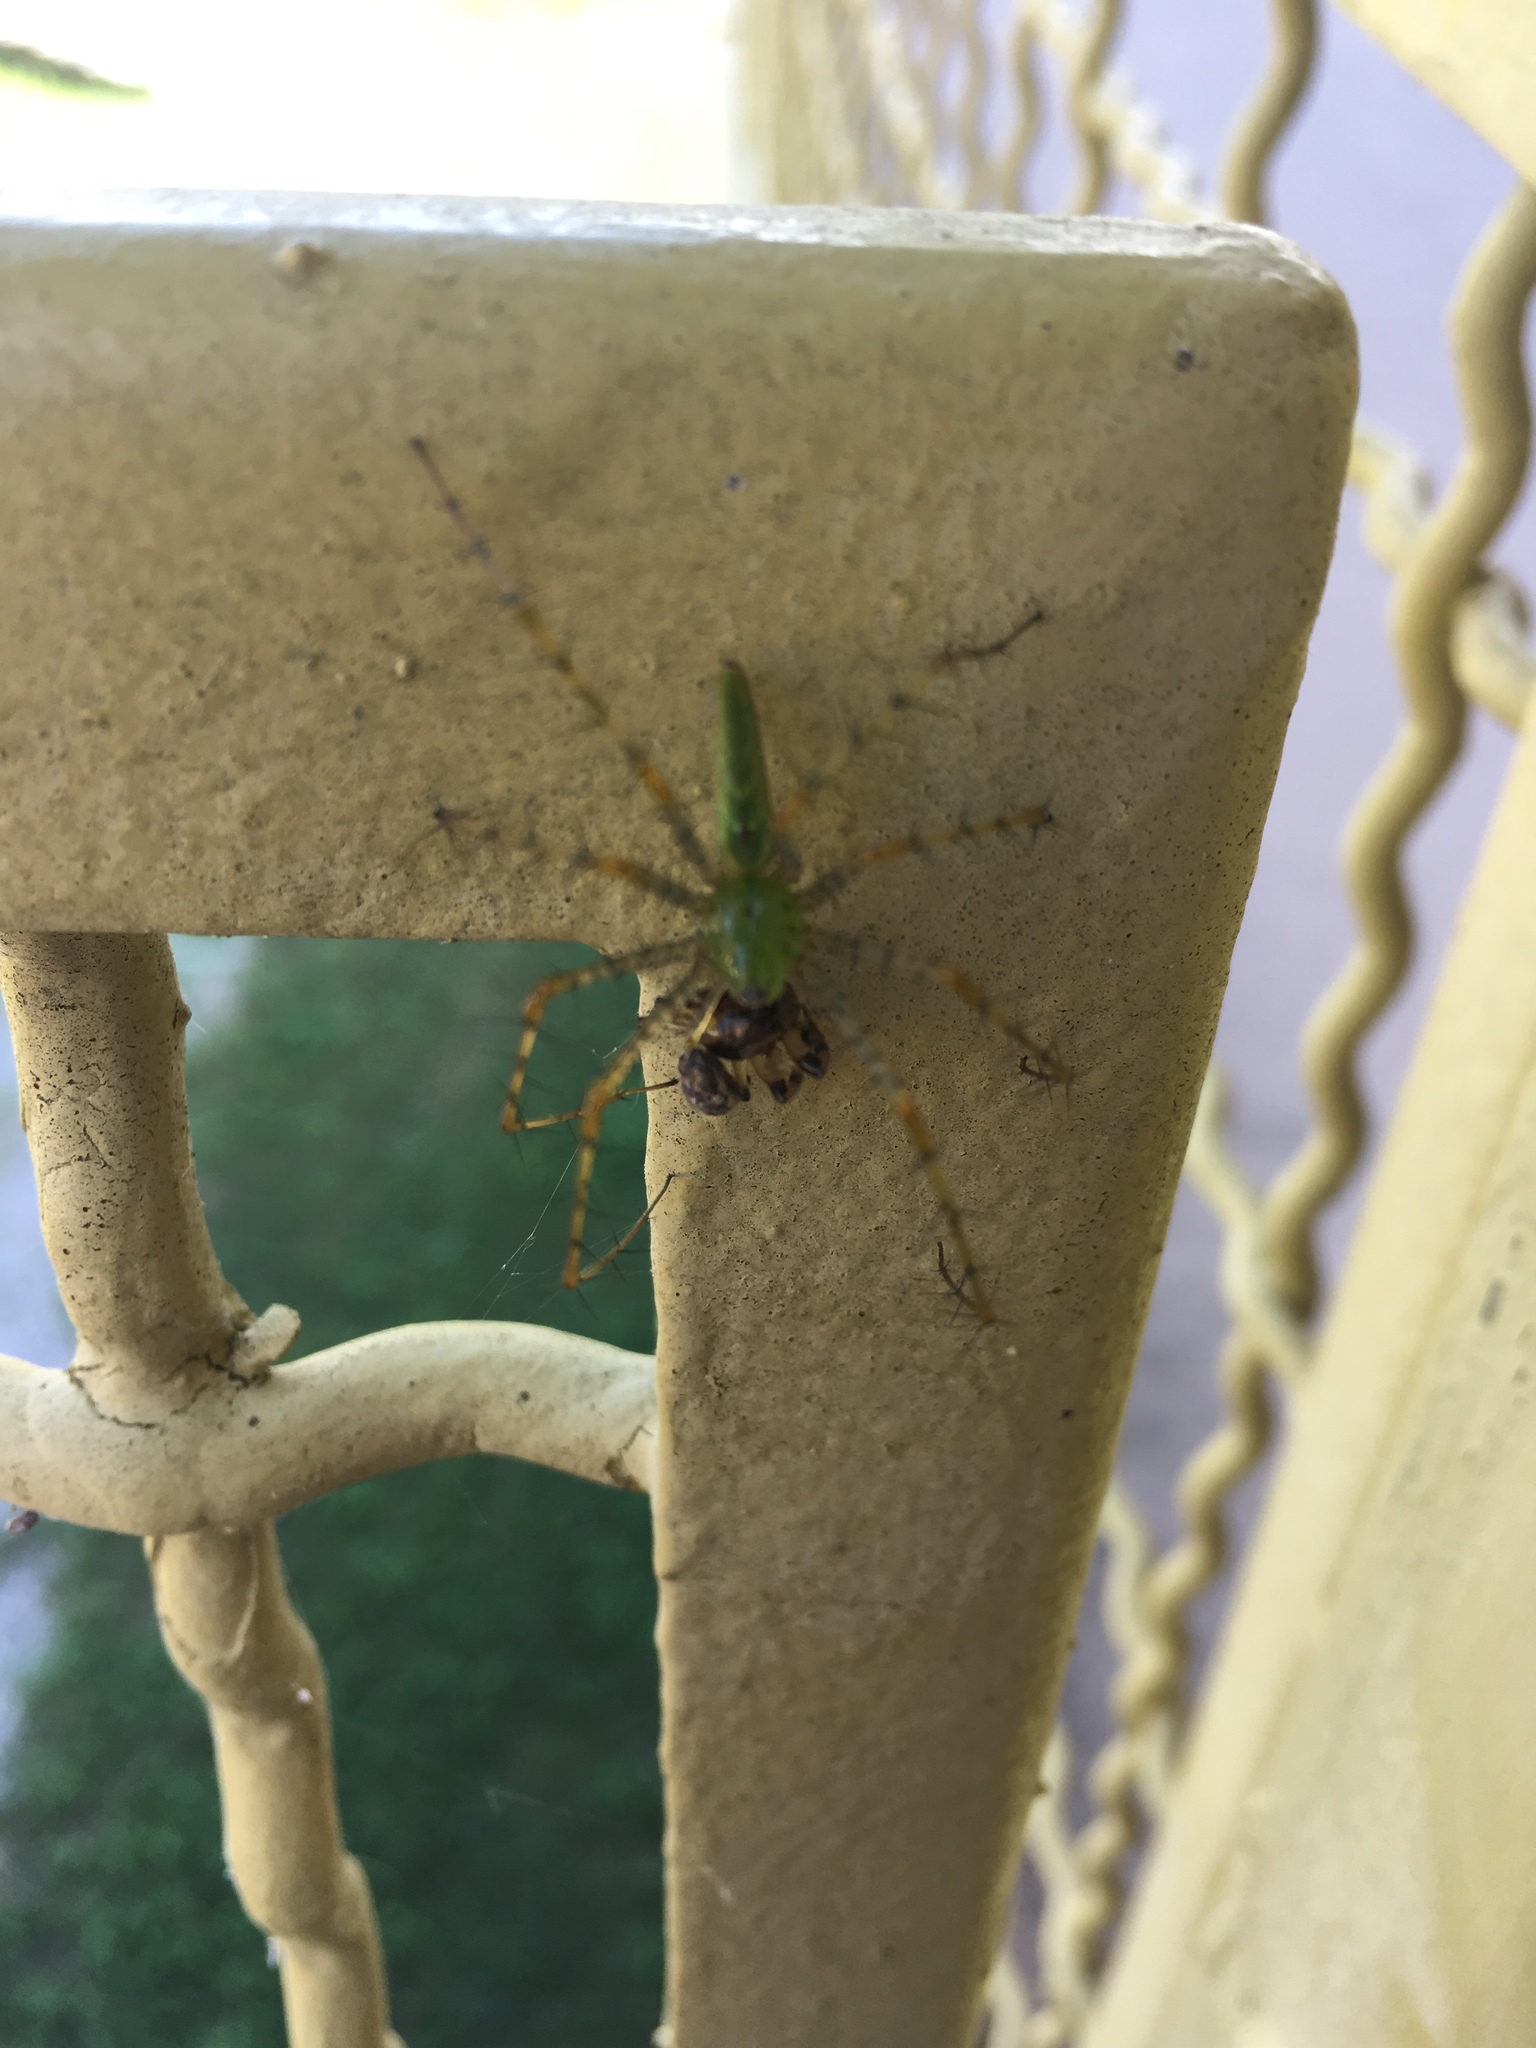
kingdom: Animalia
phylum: Arthropoda
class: Arachnida
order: Araneae
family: Oxyopidae
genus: Peucetia
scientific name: Peucetia viridans
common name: Lynx spiders
